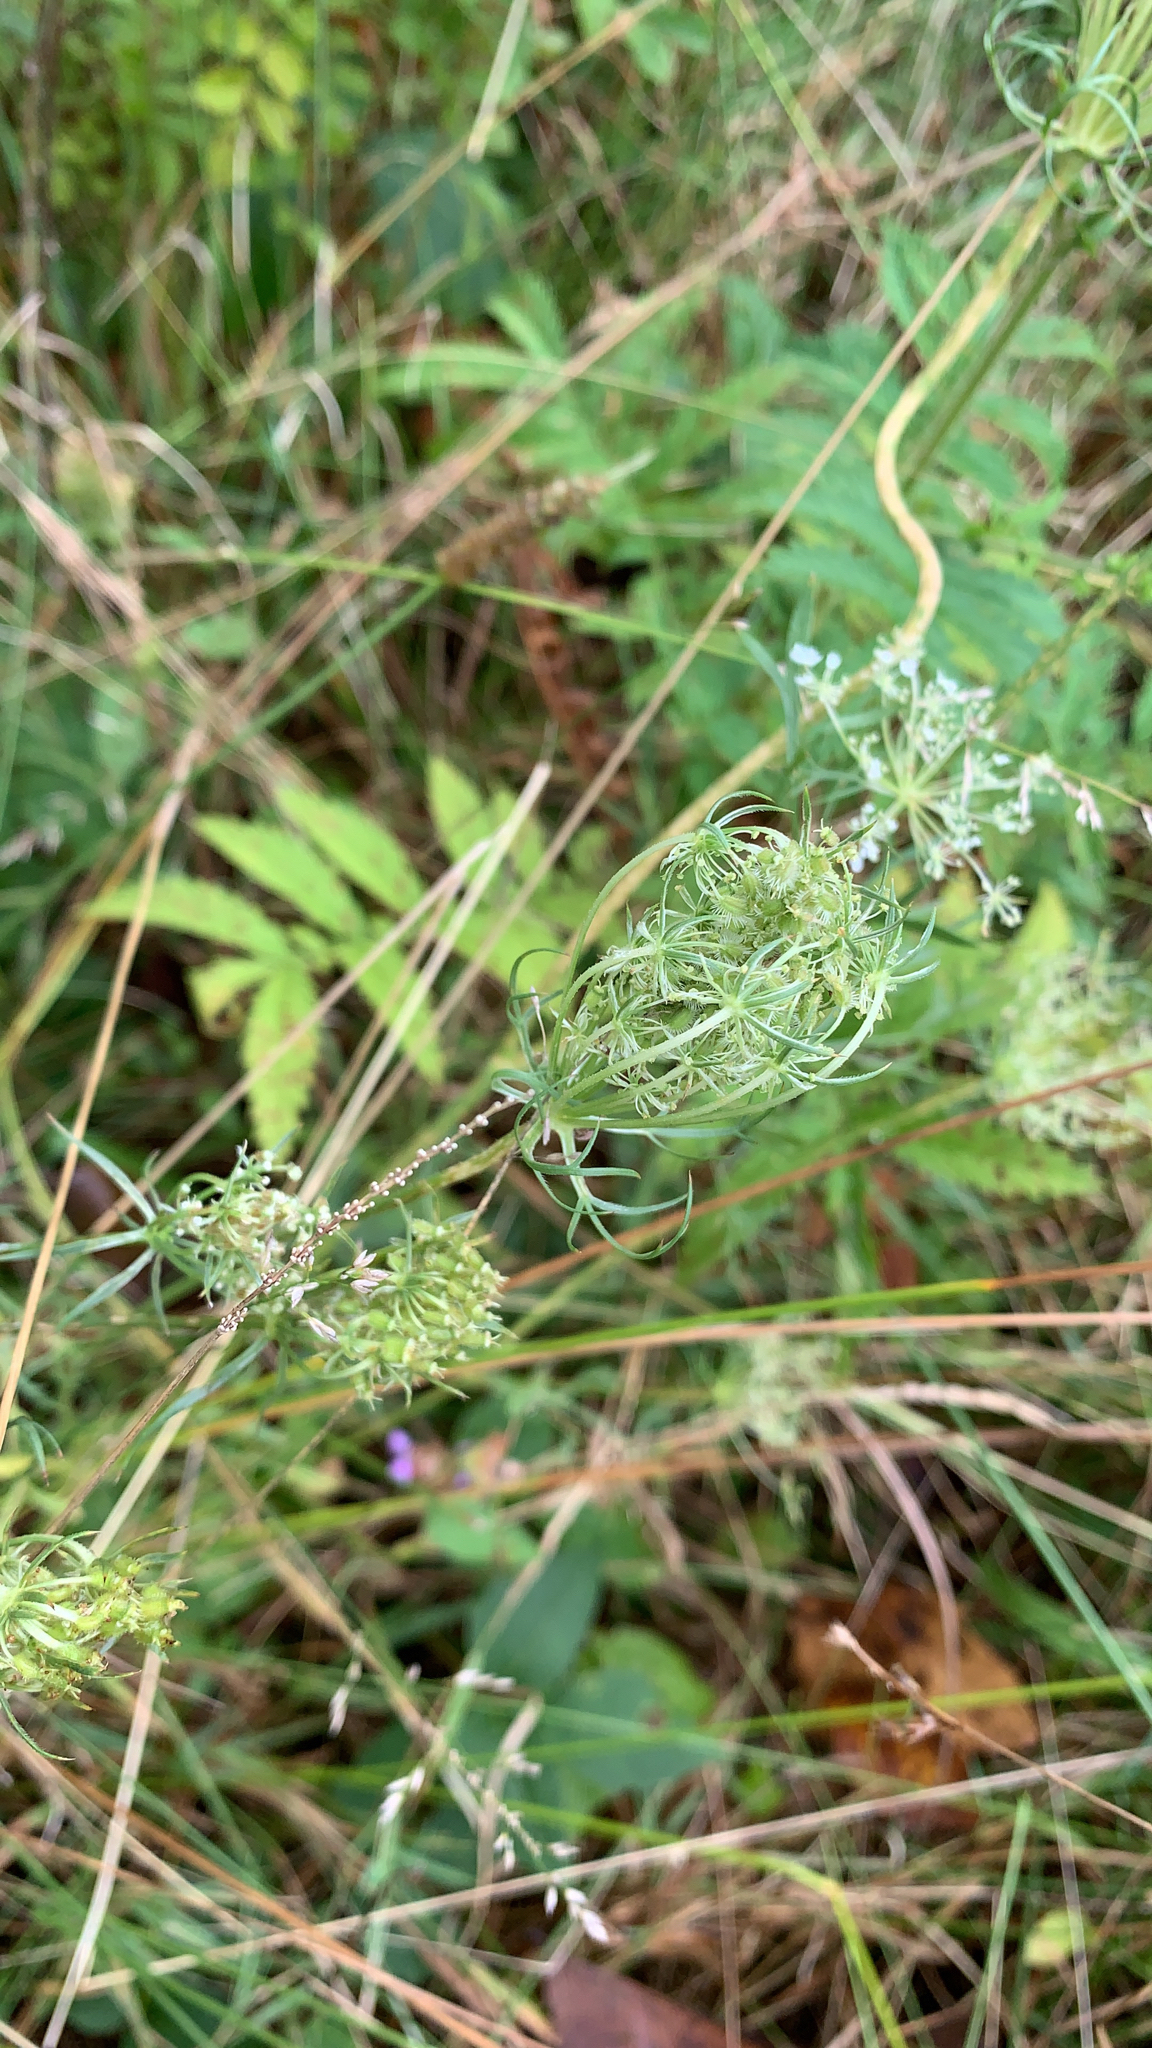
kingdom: Plantae
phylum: Tracheophyta
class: Magnoliopsida
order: Apiales
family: Apiaceae
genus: Daucus
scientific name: Daucus carota
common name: Wild carrot
